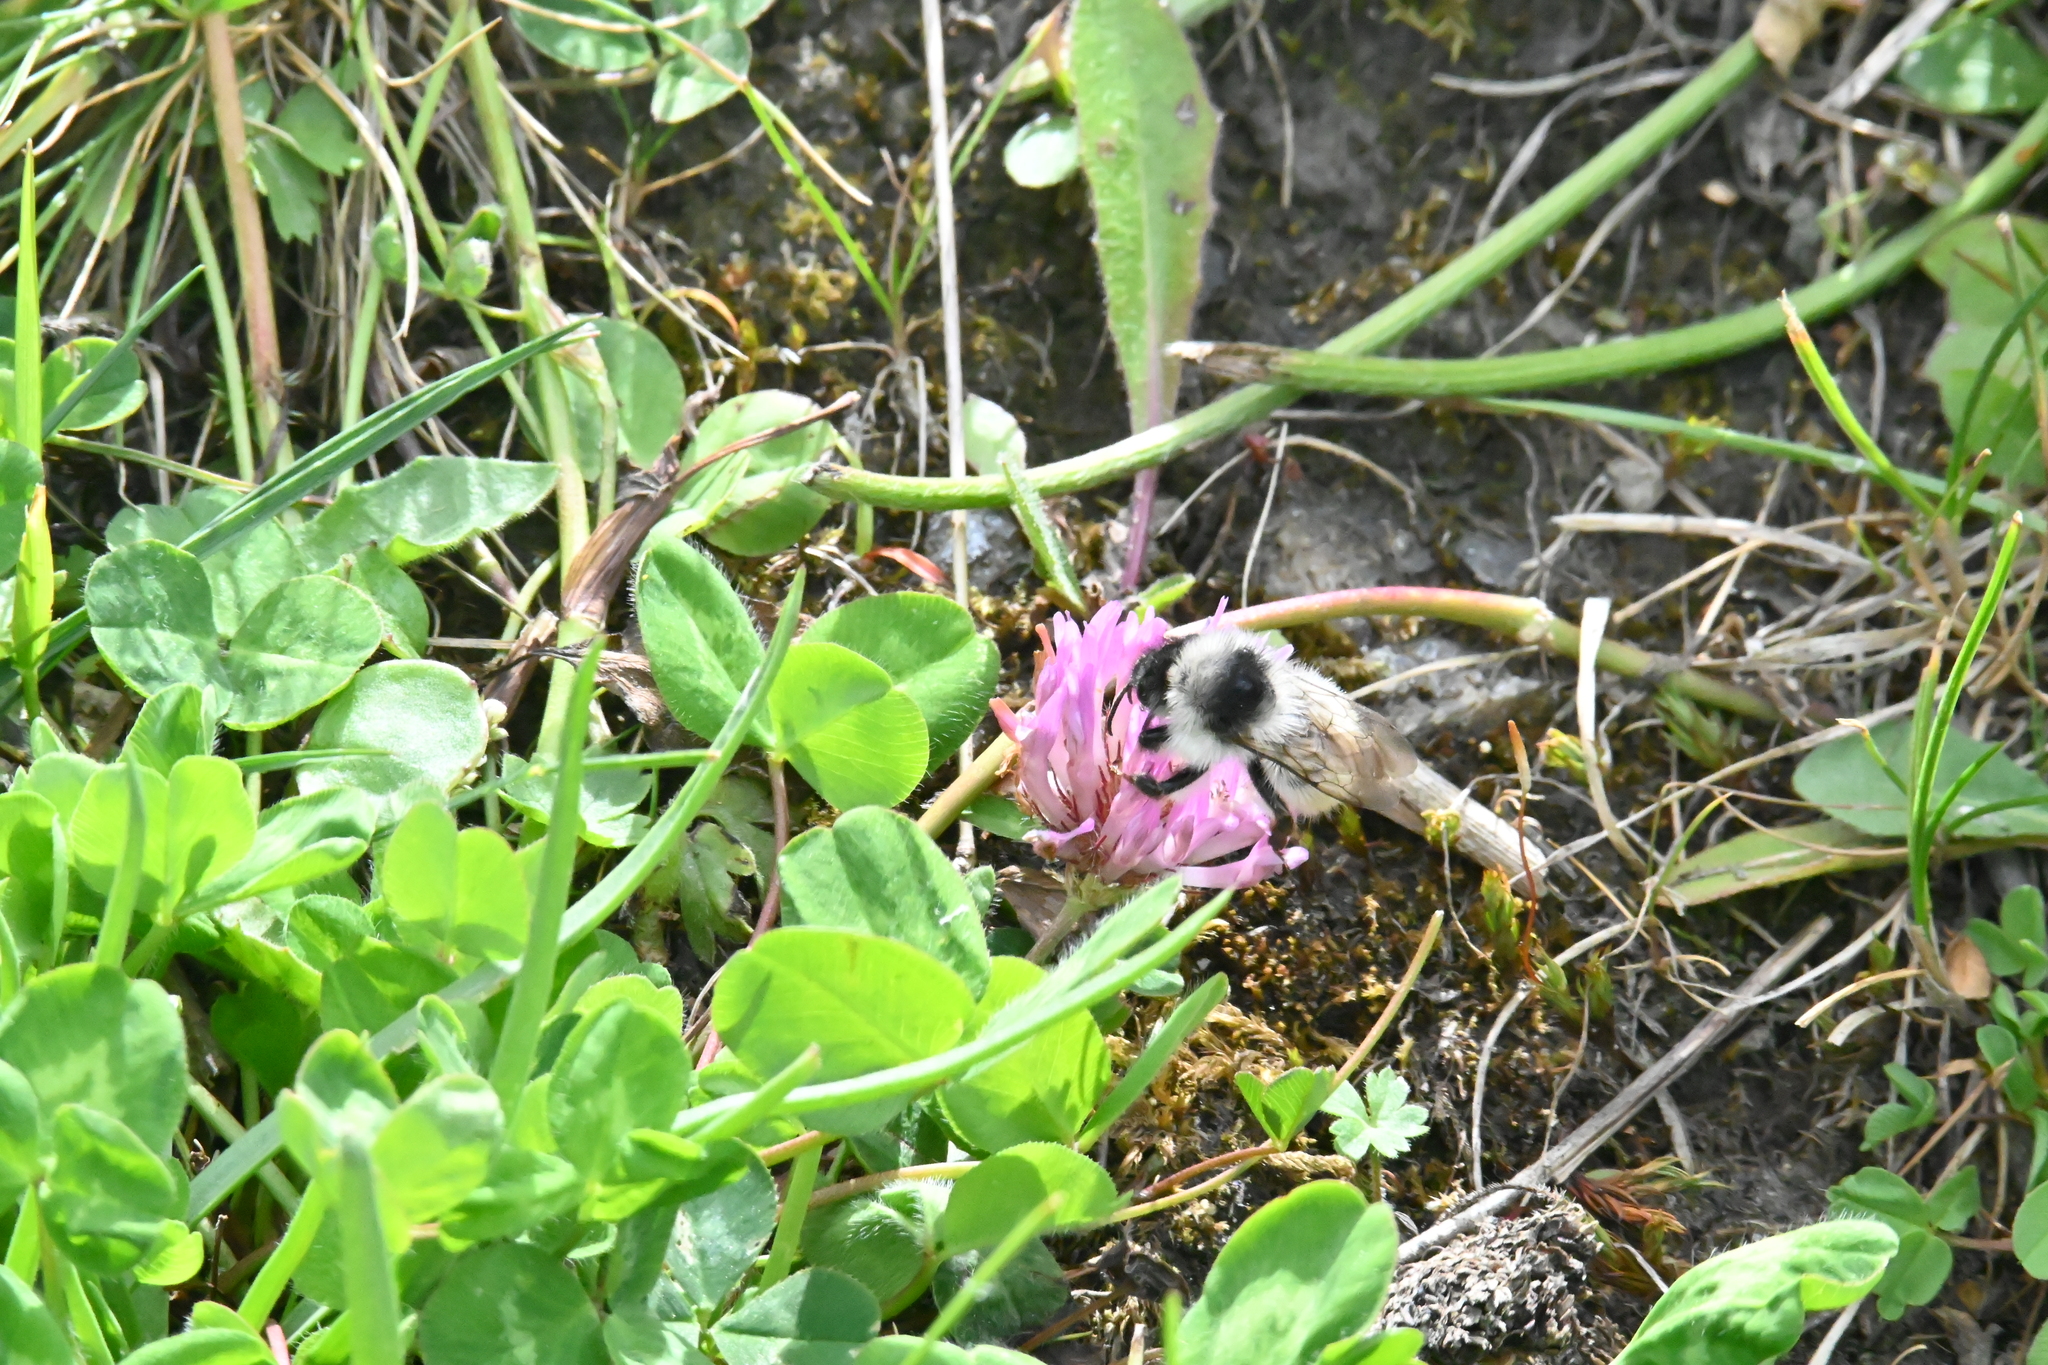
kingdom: Animalia
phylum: Arthropoda
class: Insecta
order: Hymenoptera
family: Apidae
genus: Bombus
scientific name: Bombus mesomelas
